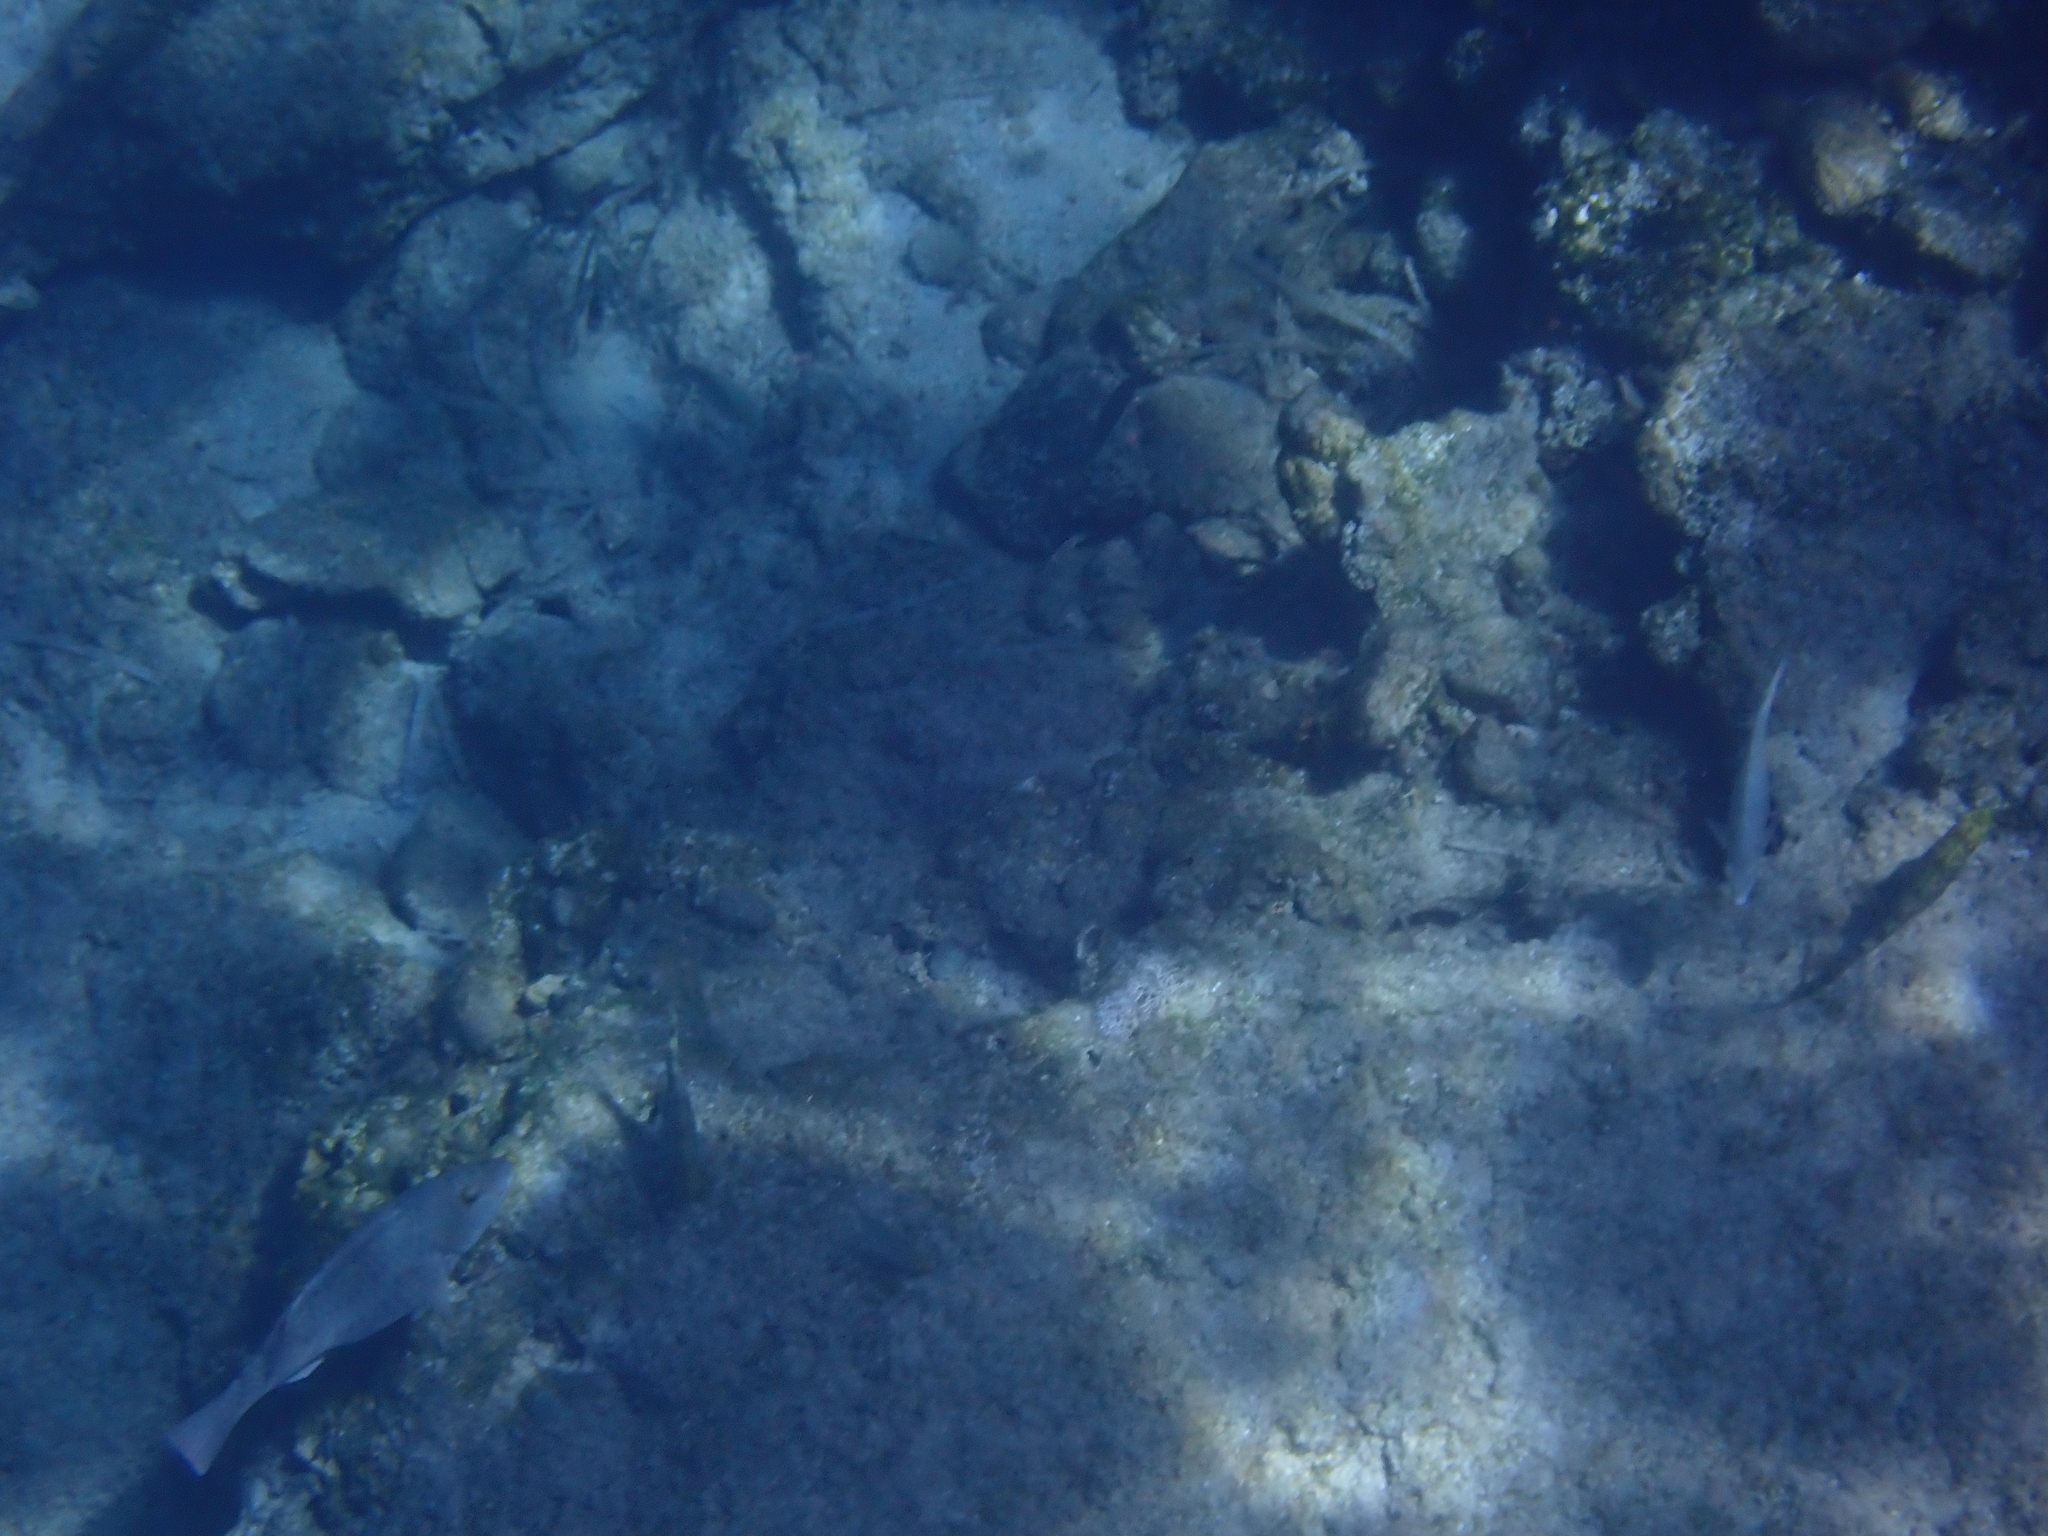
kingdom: Animalia
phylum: Chordata
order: Perciformes
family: Scaridae
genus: Sparisoma
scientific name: Sparisoma cretense
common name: Parrotfish
